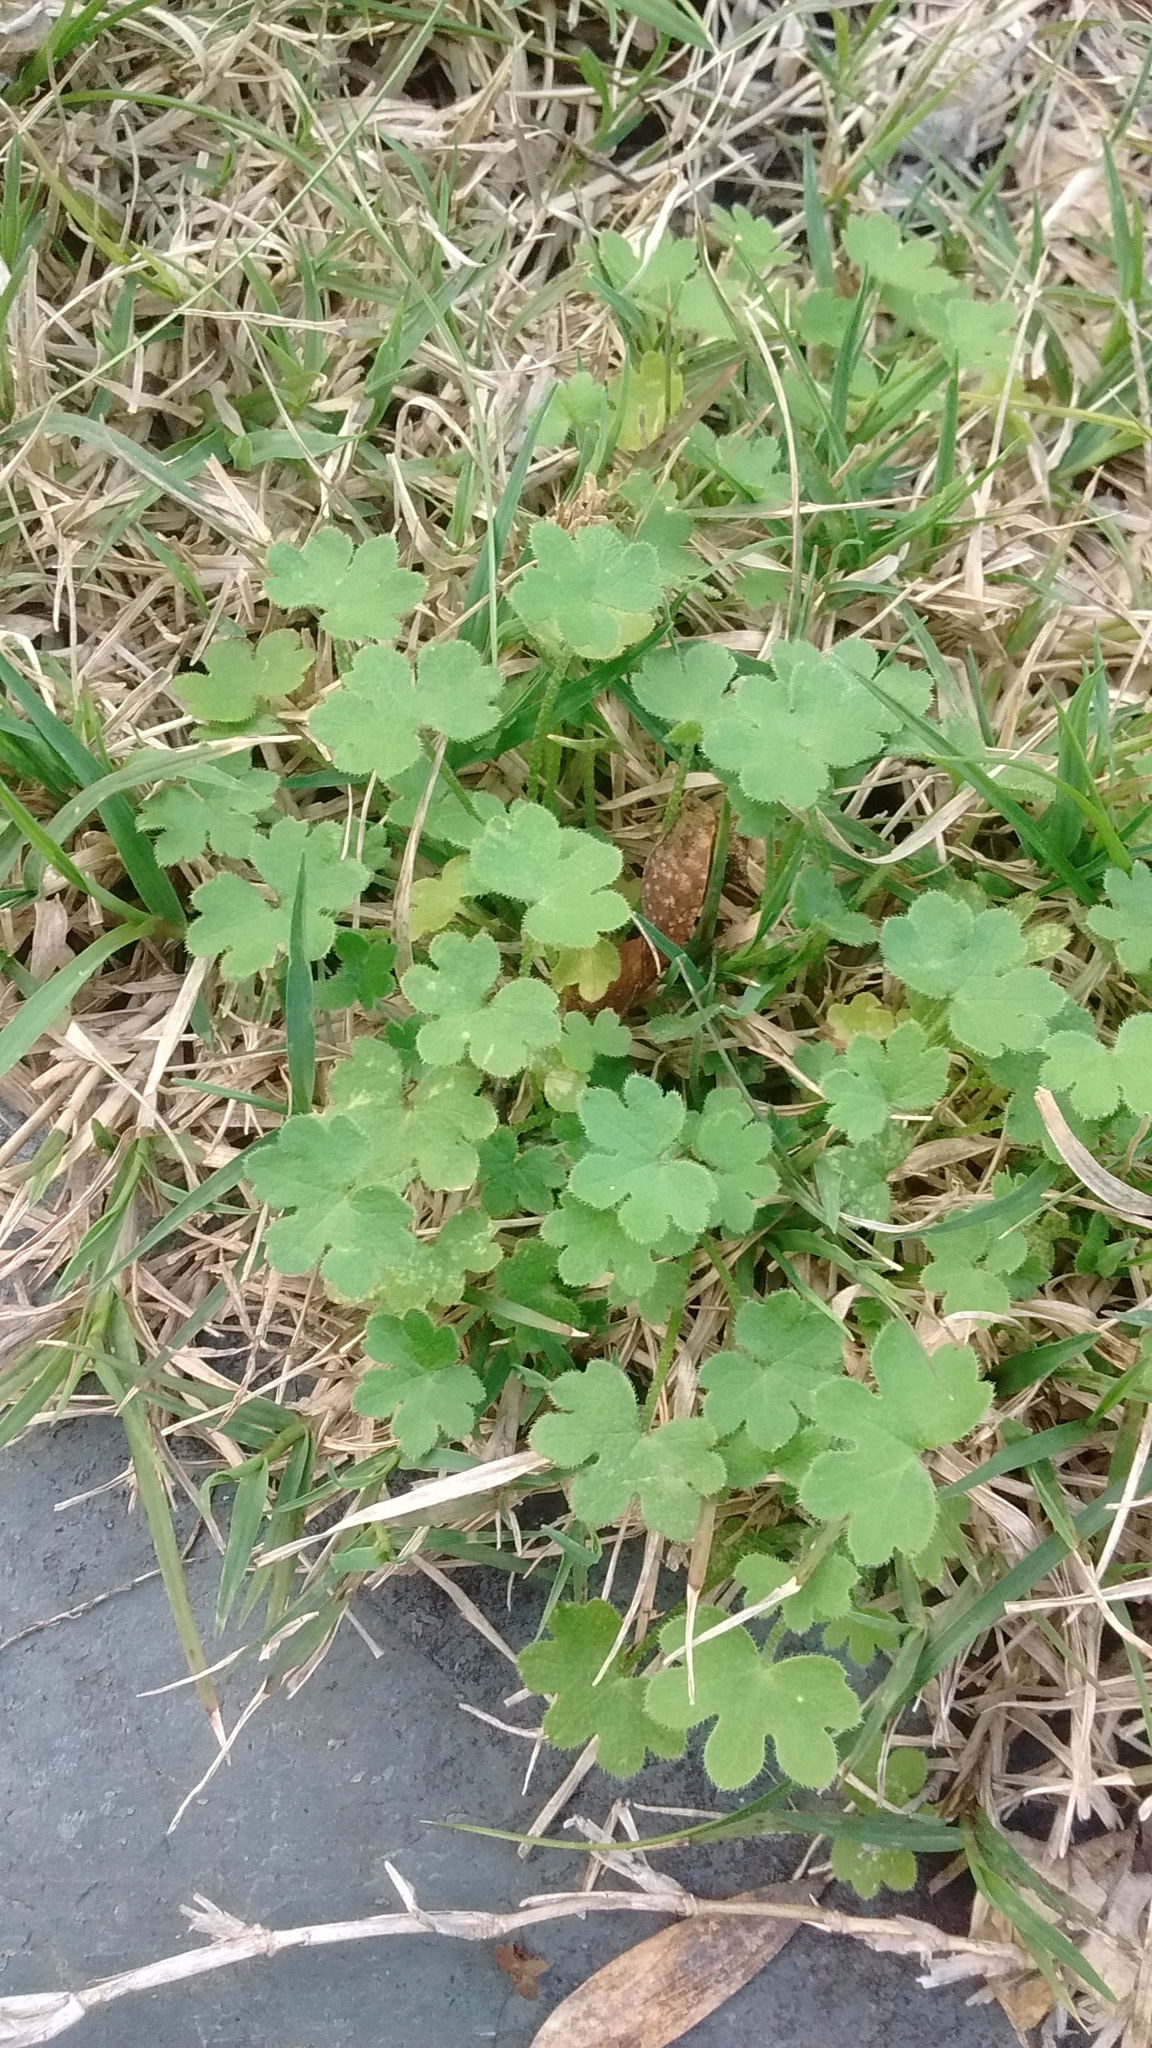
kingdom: Plantae
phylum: Tracheophyta
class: Magnoliopsida
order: Apiales
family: Apiaceae
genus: Bowlesia
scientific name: Bowlesia incana
